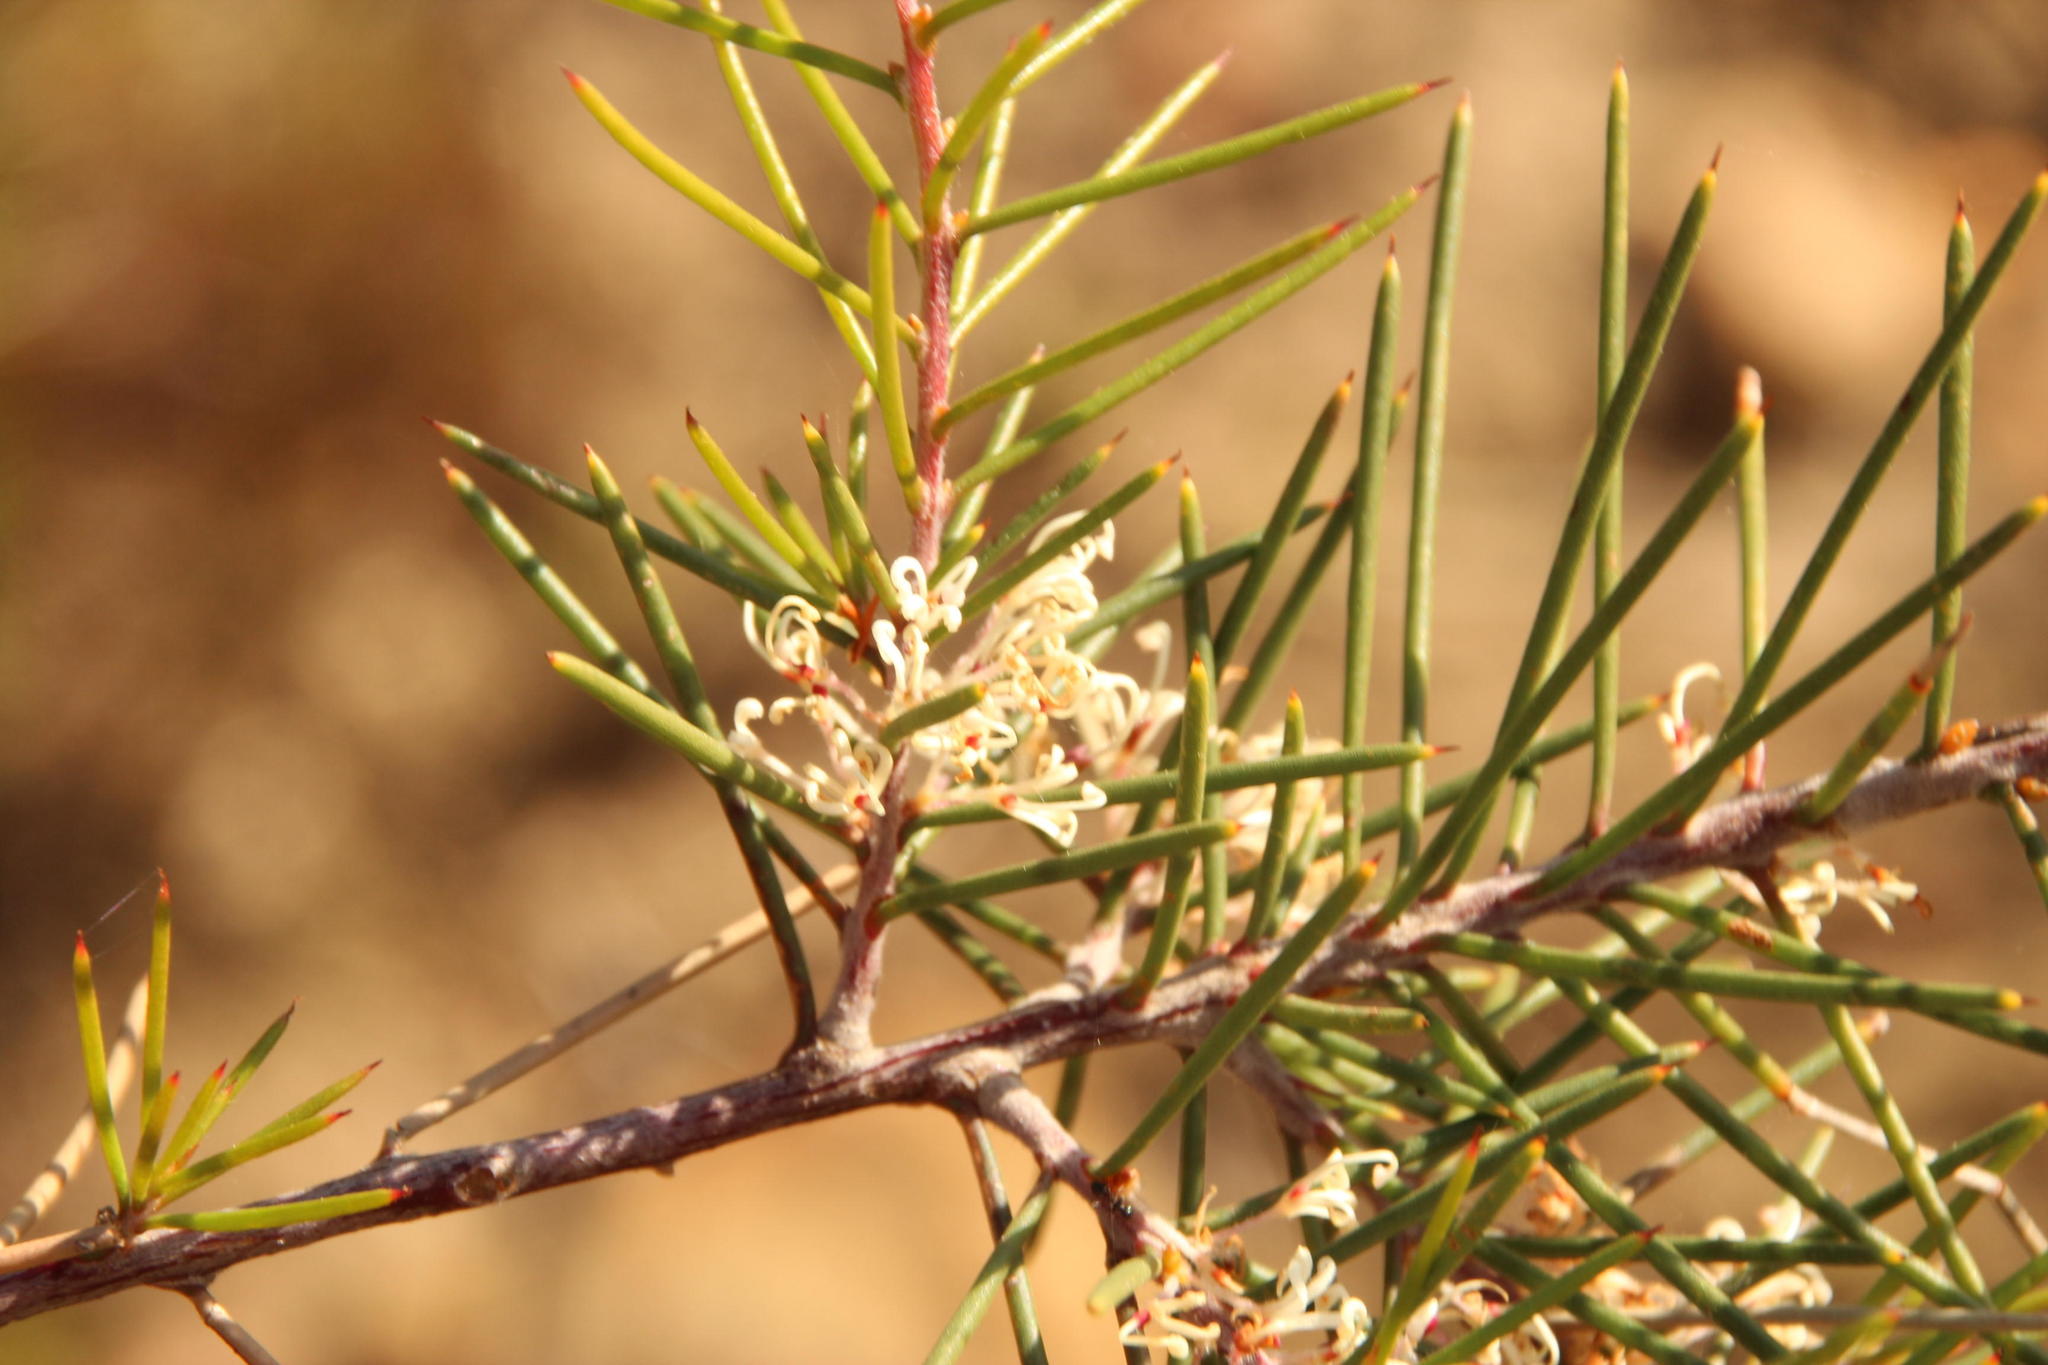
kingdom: Plantae
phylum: Tracheophyta
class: Magnoliopsida
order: Proteales
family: Proteaceae
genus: Hakea
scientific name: Hakea sericea
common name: Needle bush
